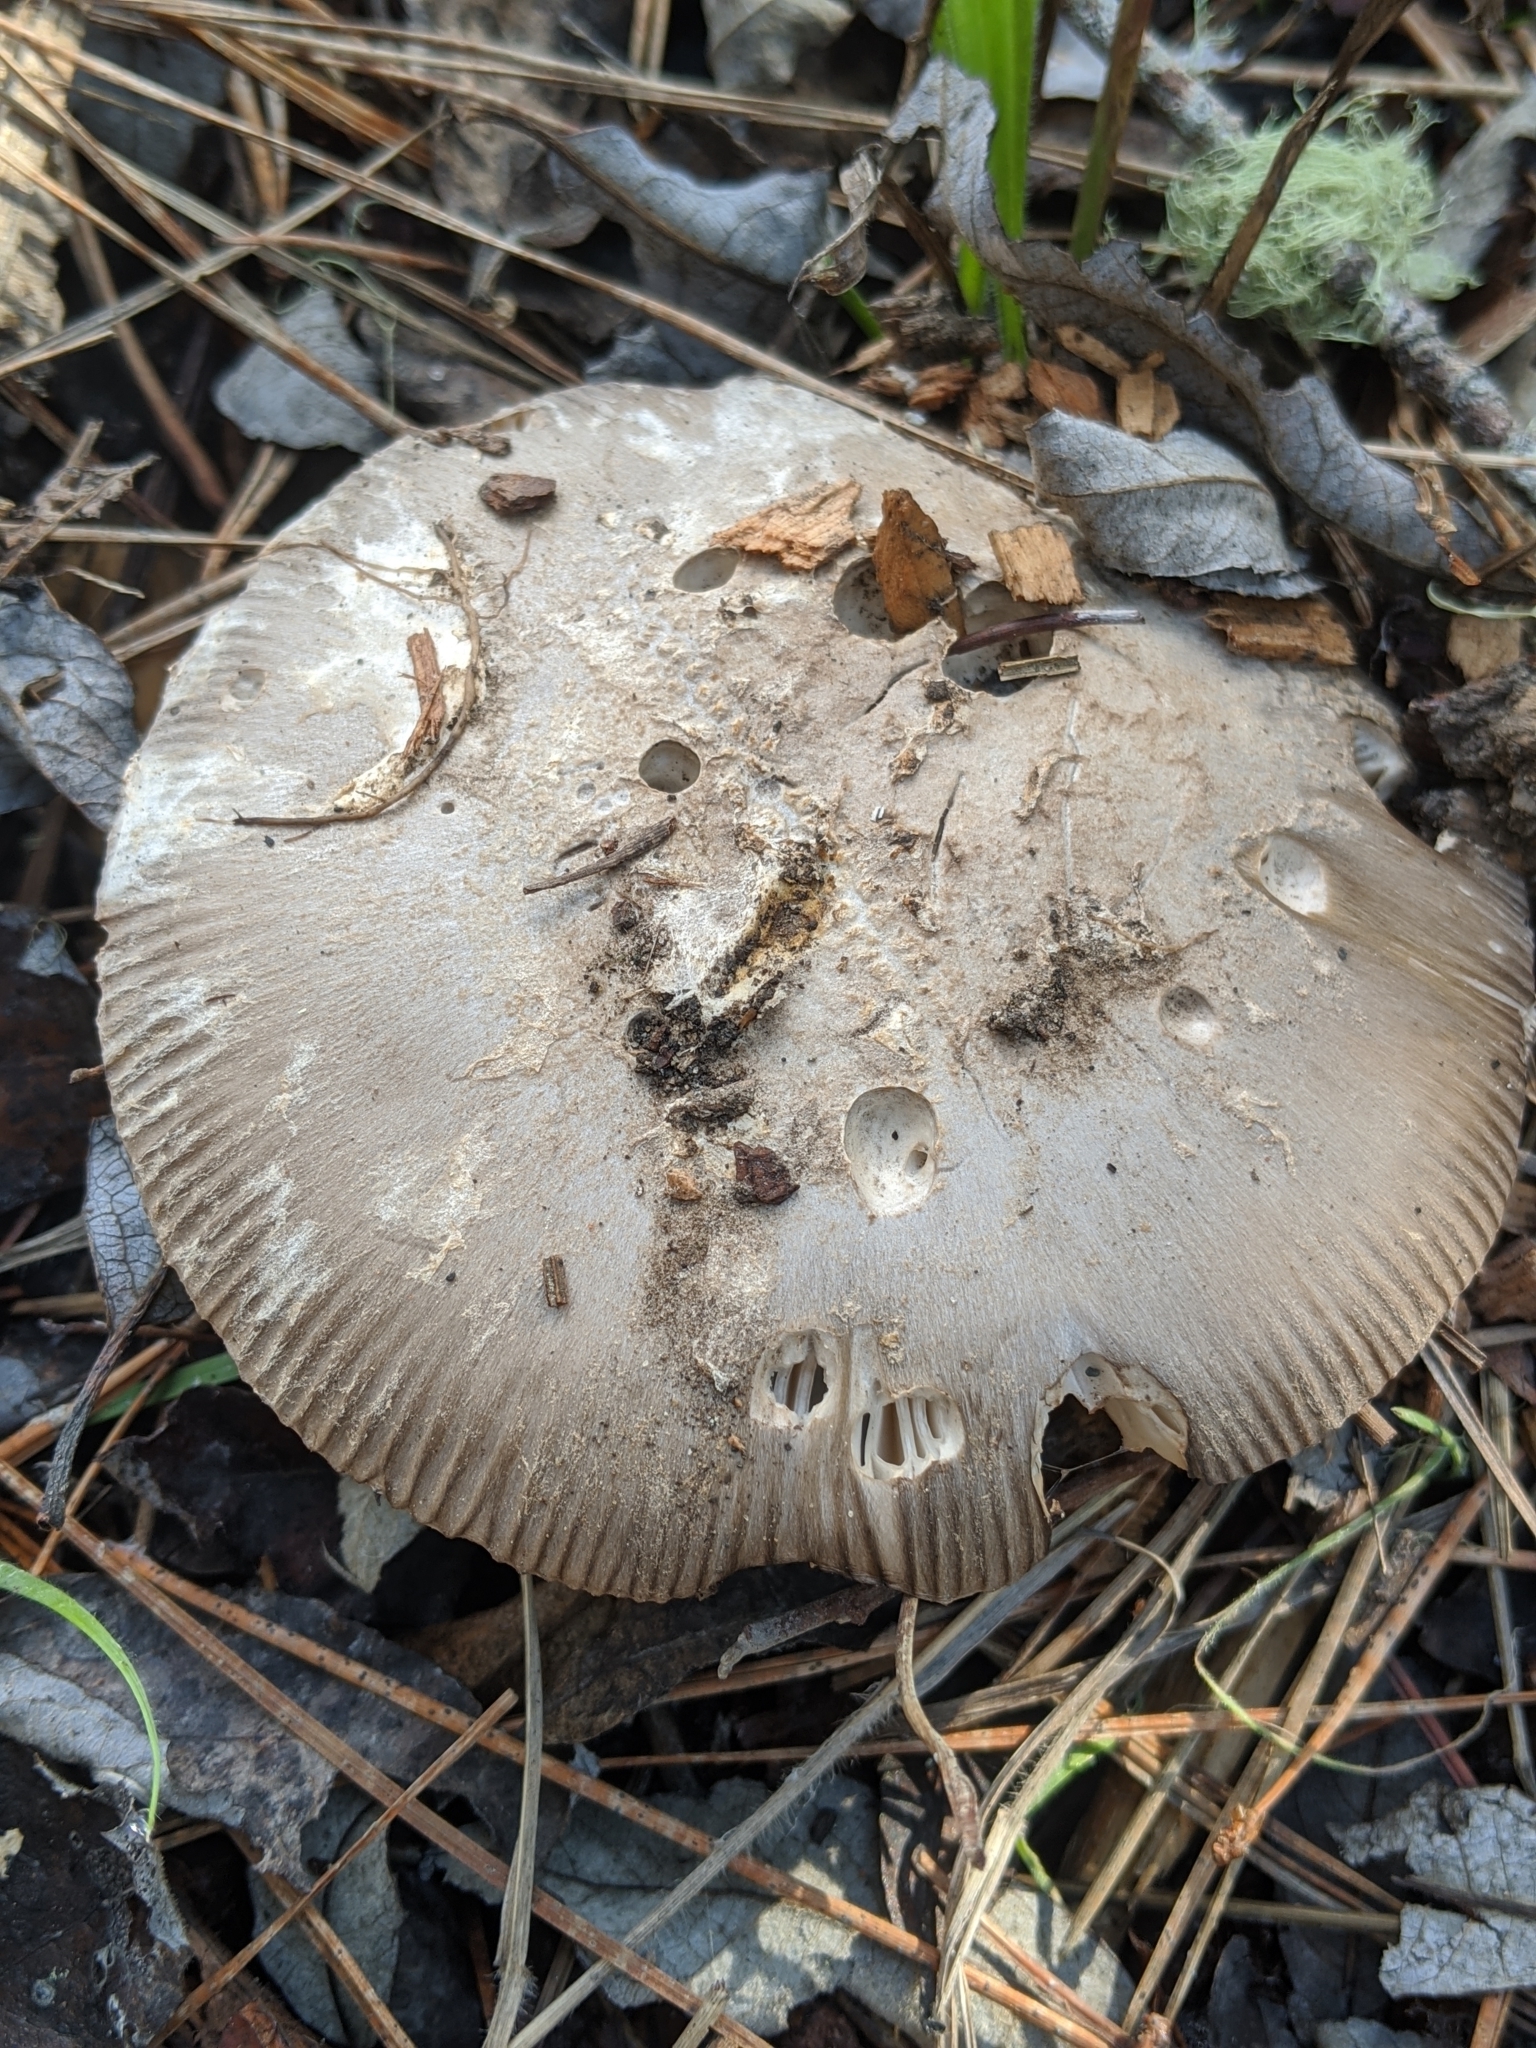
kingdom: Fungi
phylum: Basidiomycota
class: Agaricomycetes
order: Agaricales
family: Amanitaceae
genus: Amanita
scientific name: Amanita protecta
